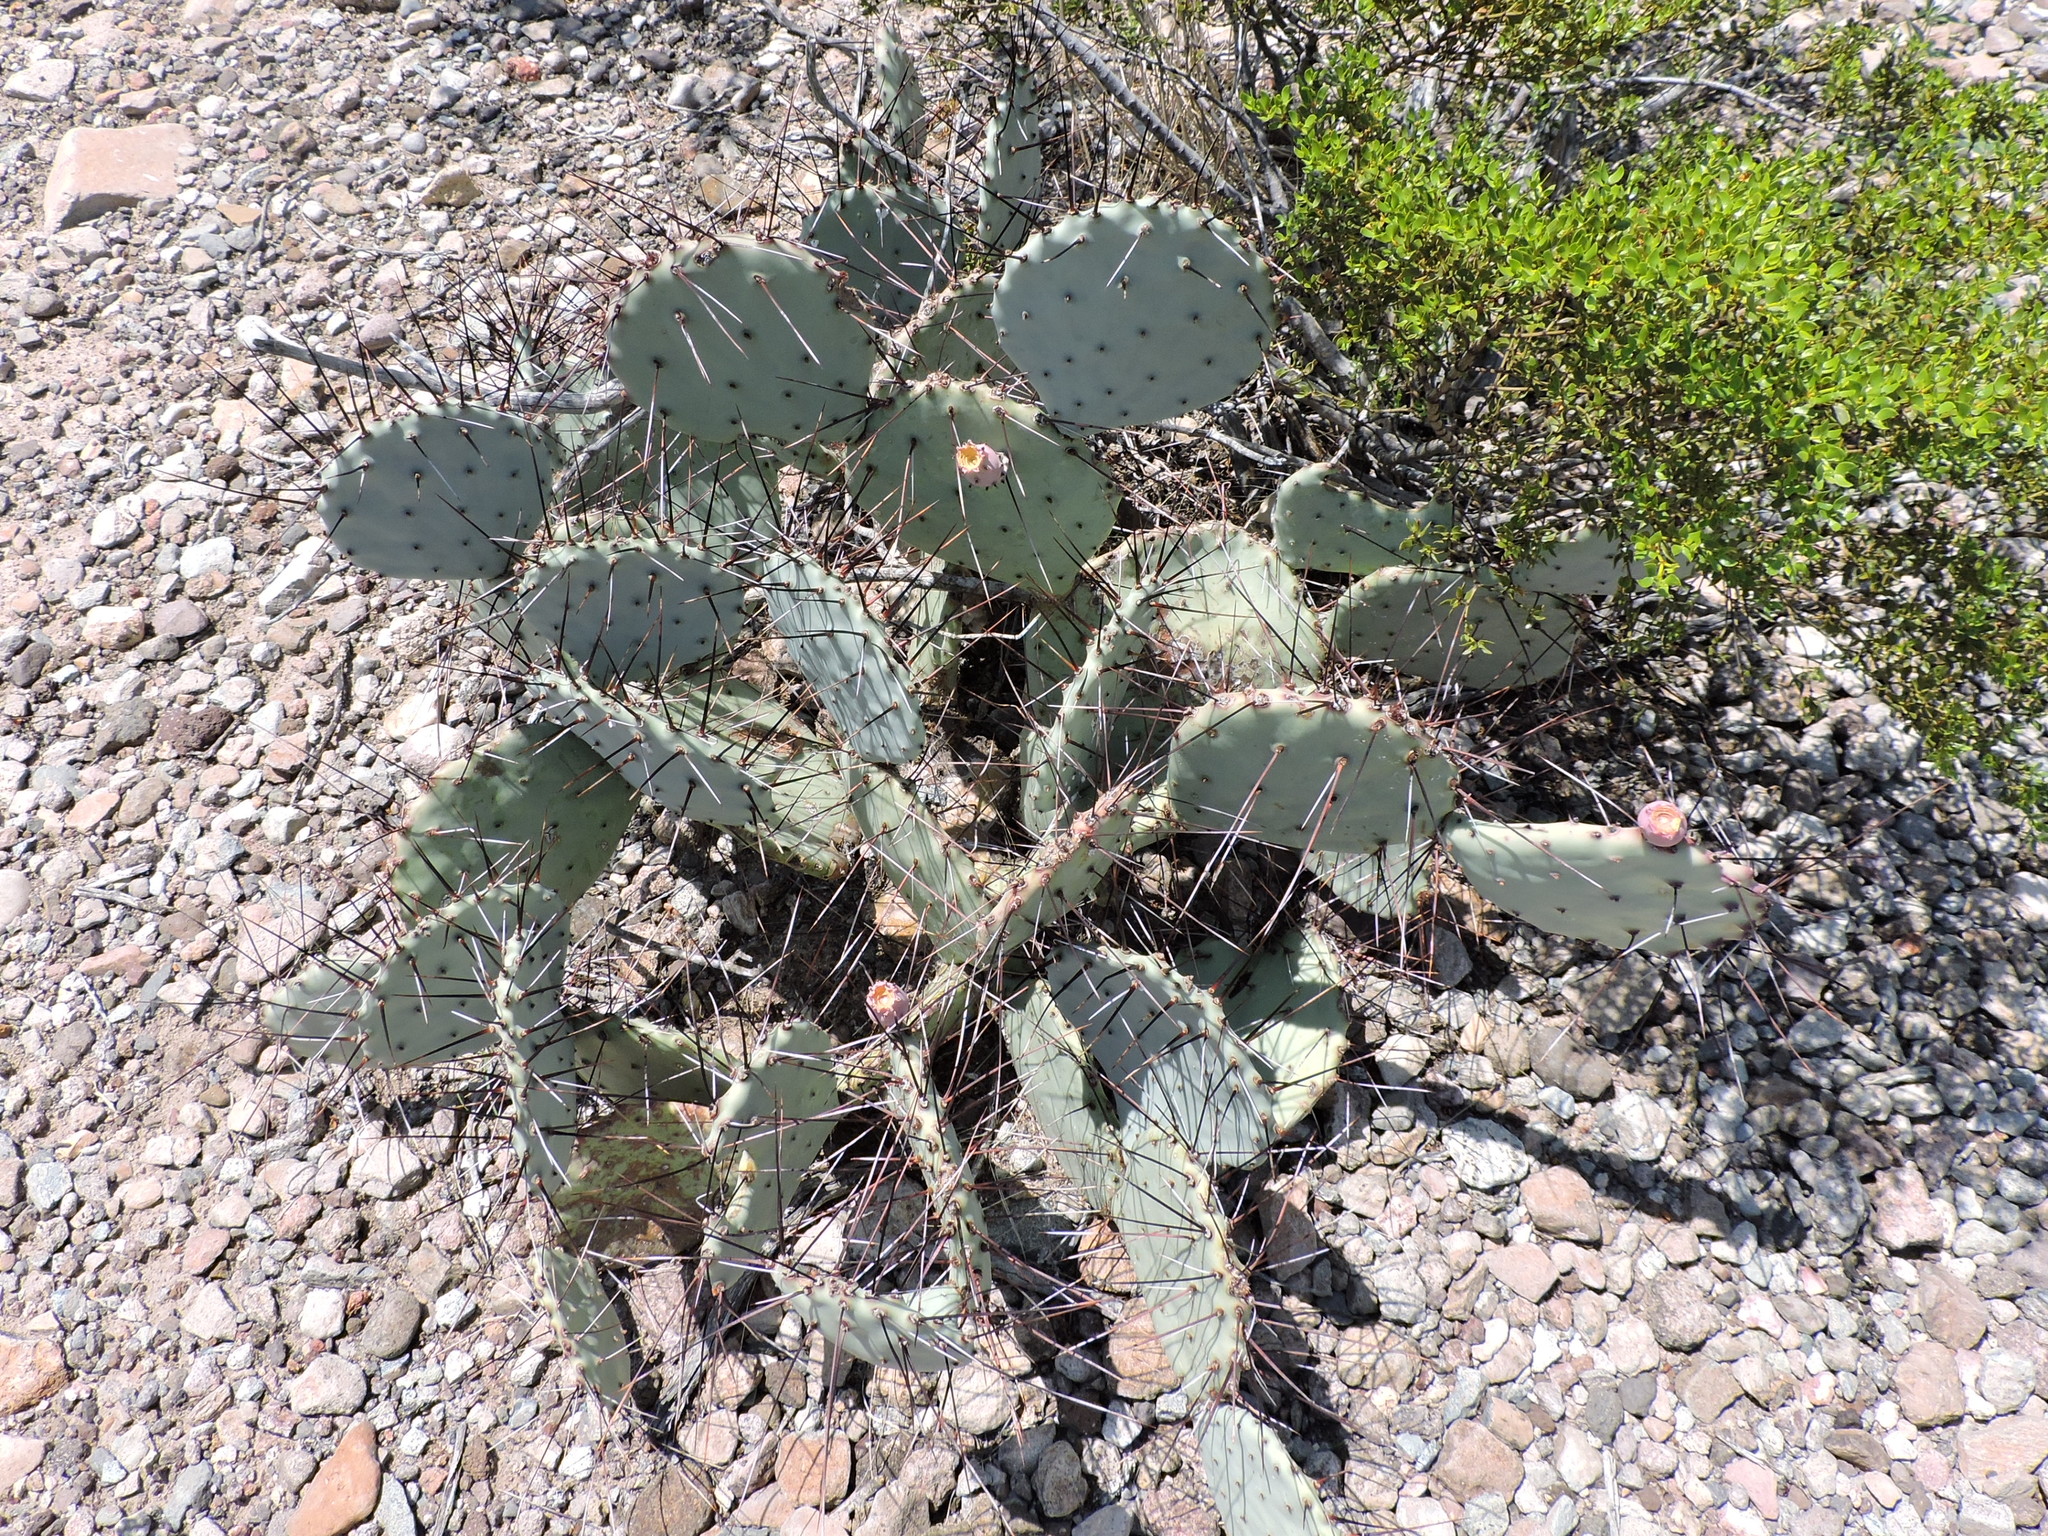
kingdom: Plantae
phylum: Tracheophyta
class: Magnoliopsida
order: Caryophyllales
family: Cactaceae
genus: Opuntia
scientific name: Opuntia phaeacantha
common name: New mexico prickly-pear
